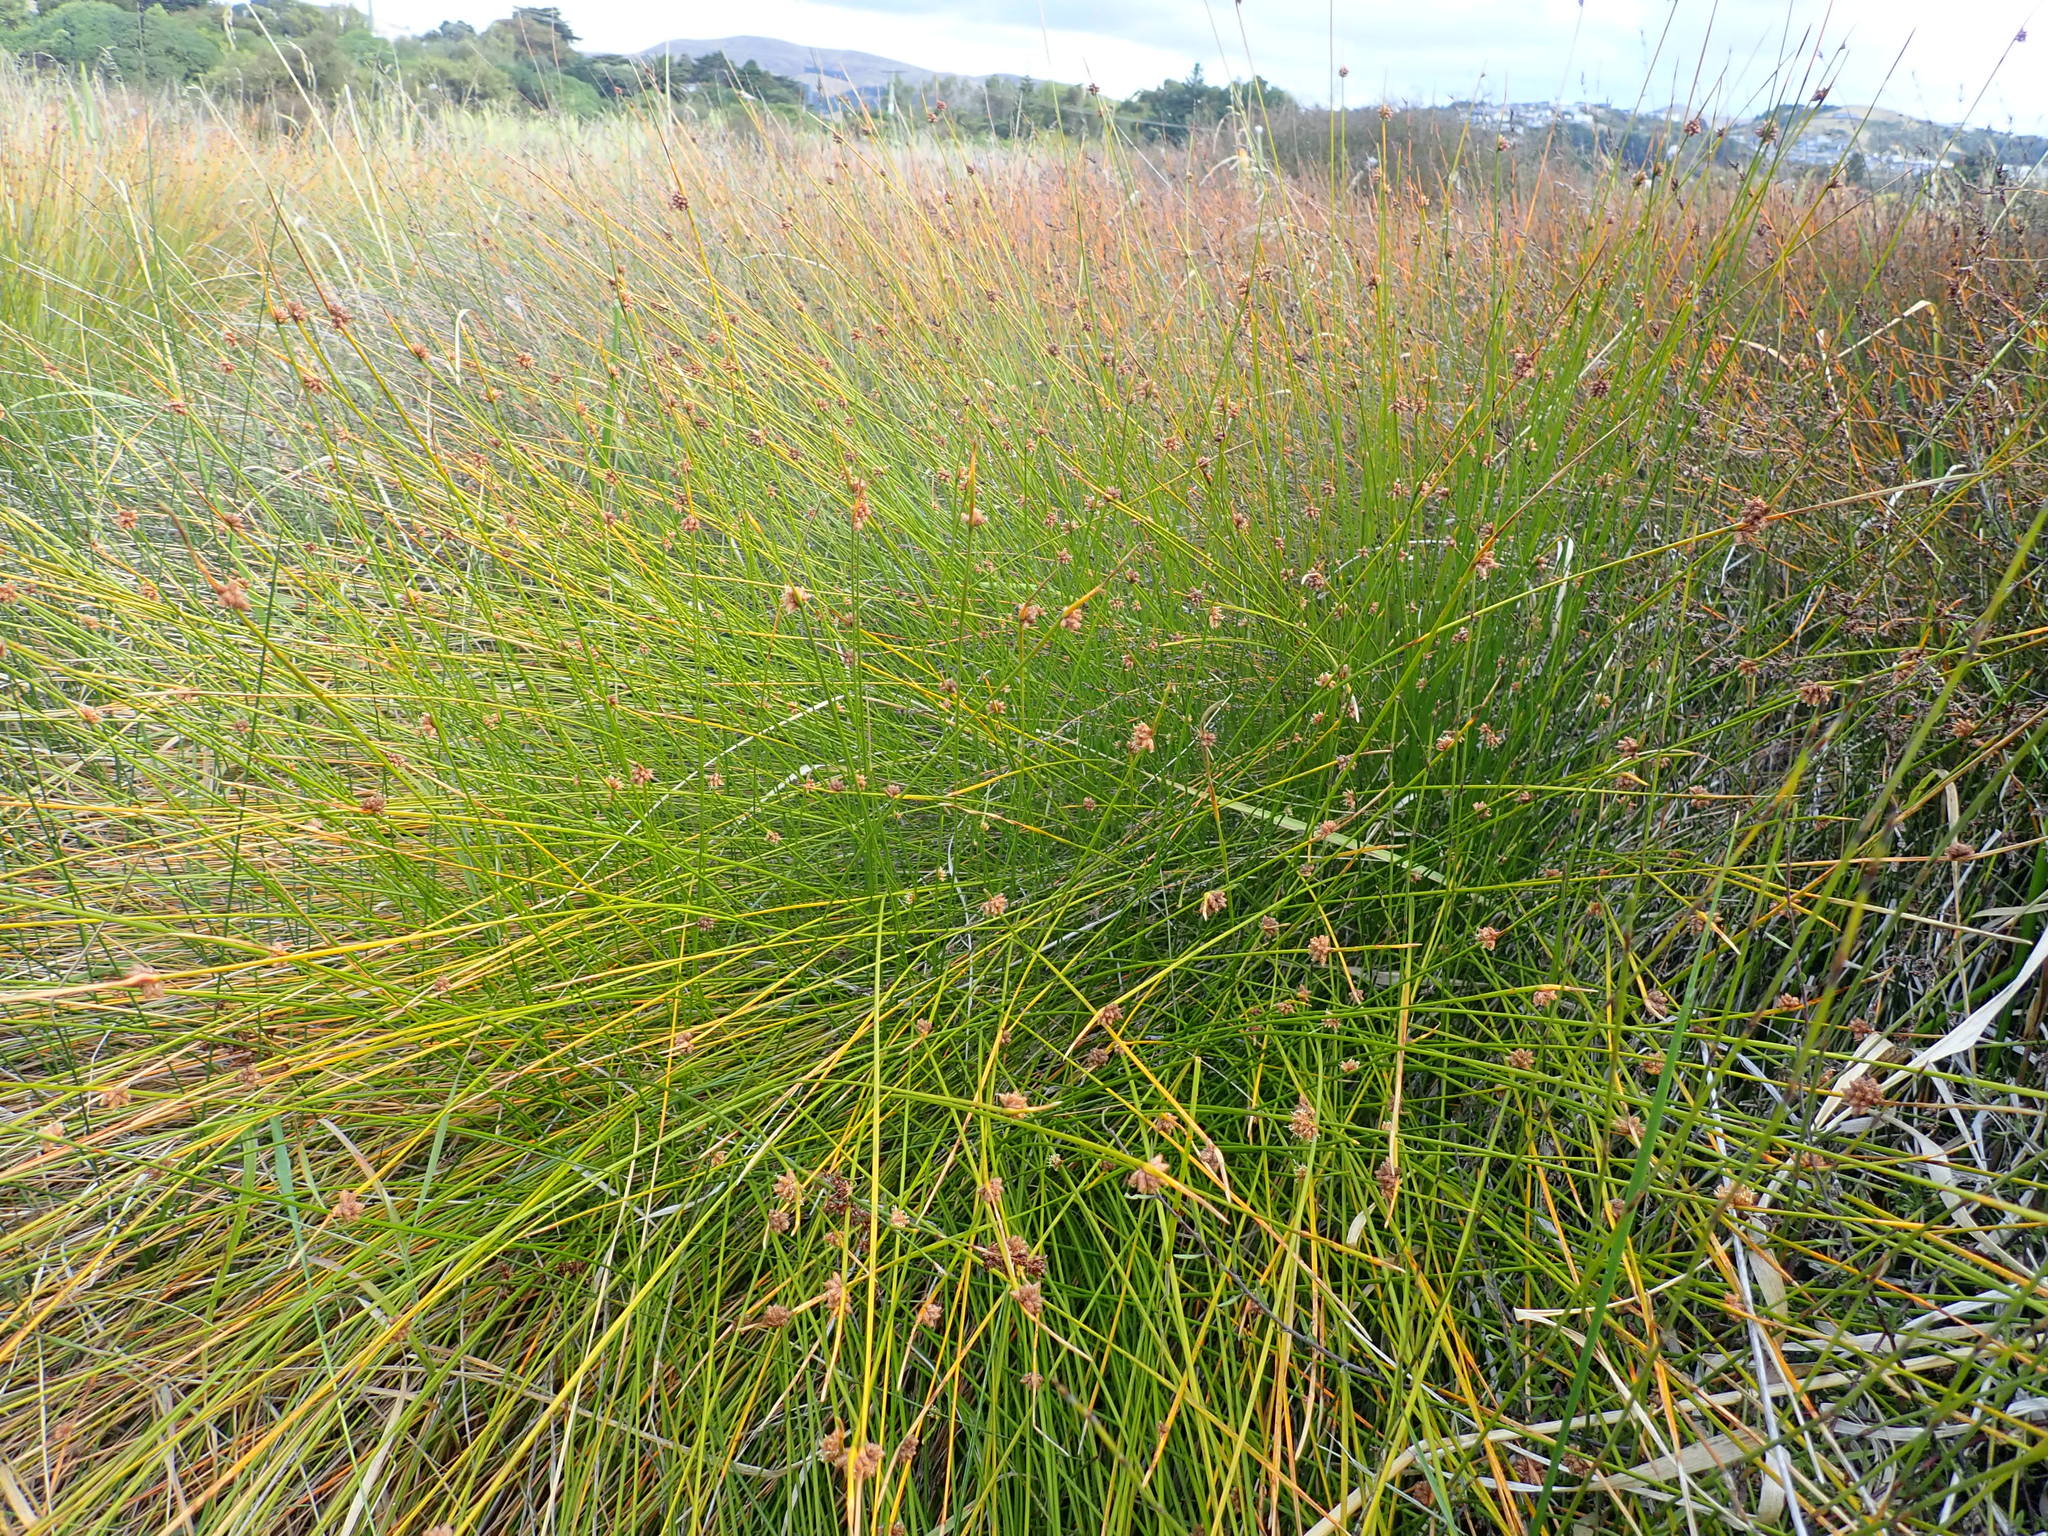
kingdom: Plantae
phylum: Tracheophyta
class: Liliopsida
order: Poales
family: Cyperaceae
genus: Ficinia
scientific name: Ficinia nodosa
